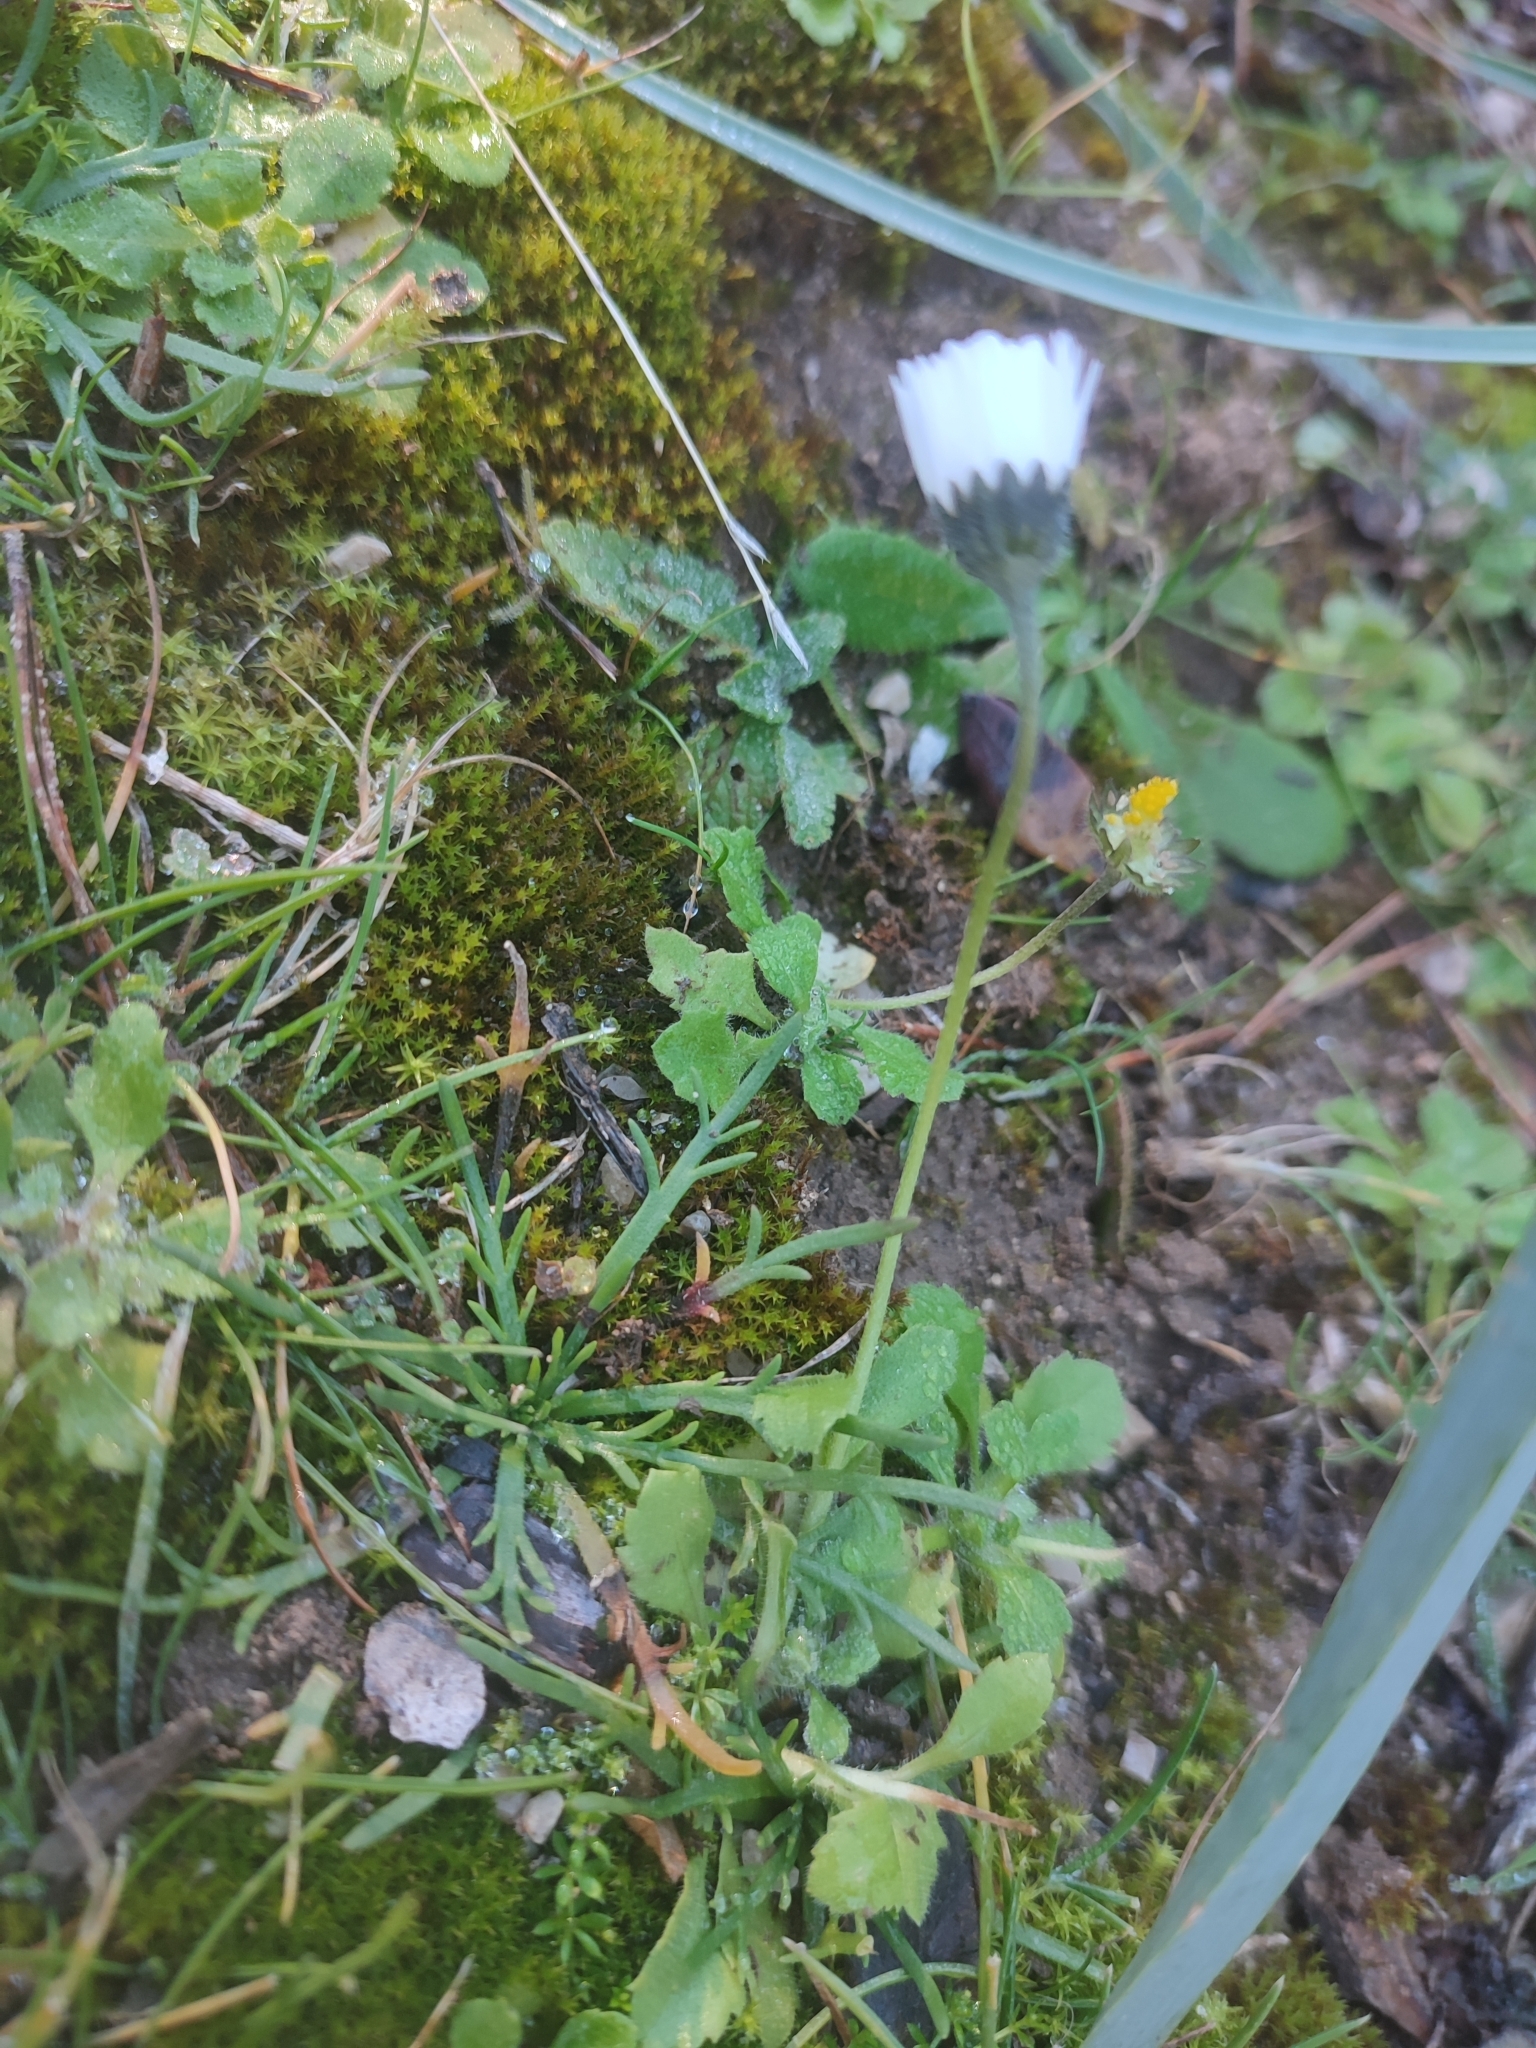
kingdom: Plantae
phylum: Tracheophyta
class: Magnoliopsida
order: Asterales
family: Asteraceae
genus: Bellis
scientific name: Bellis annua
